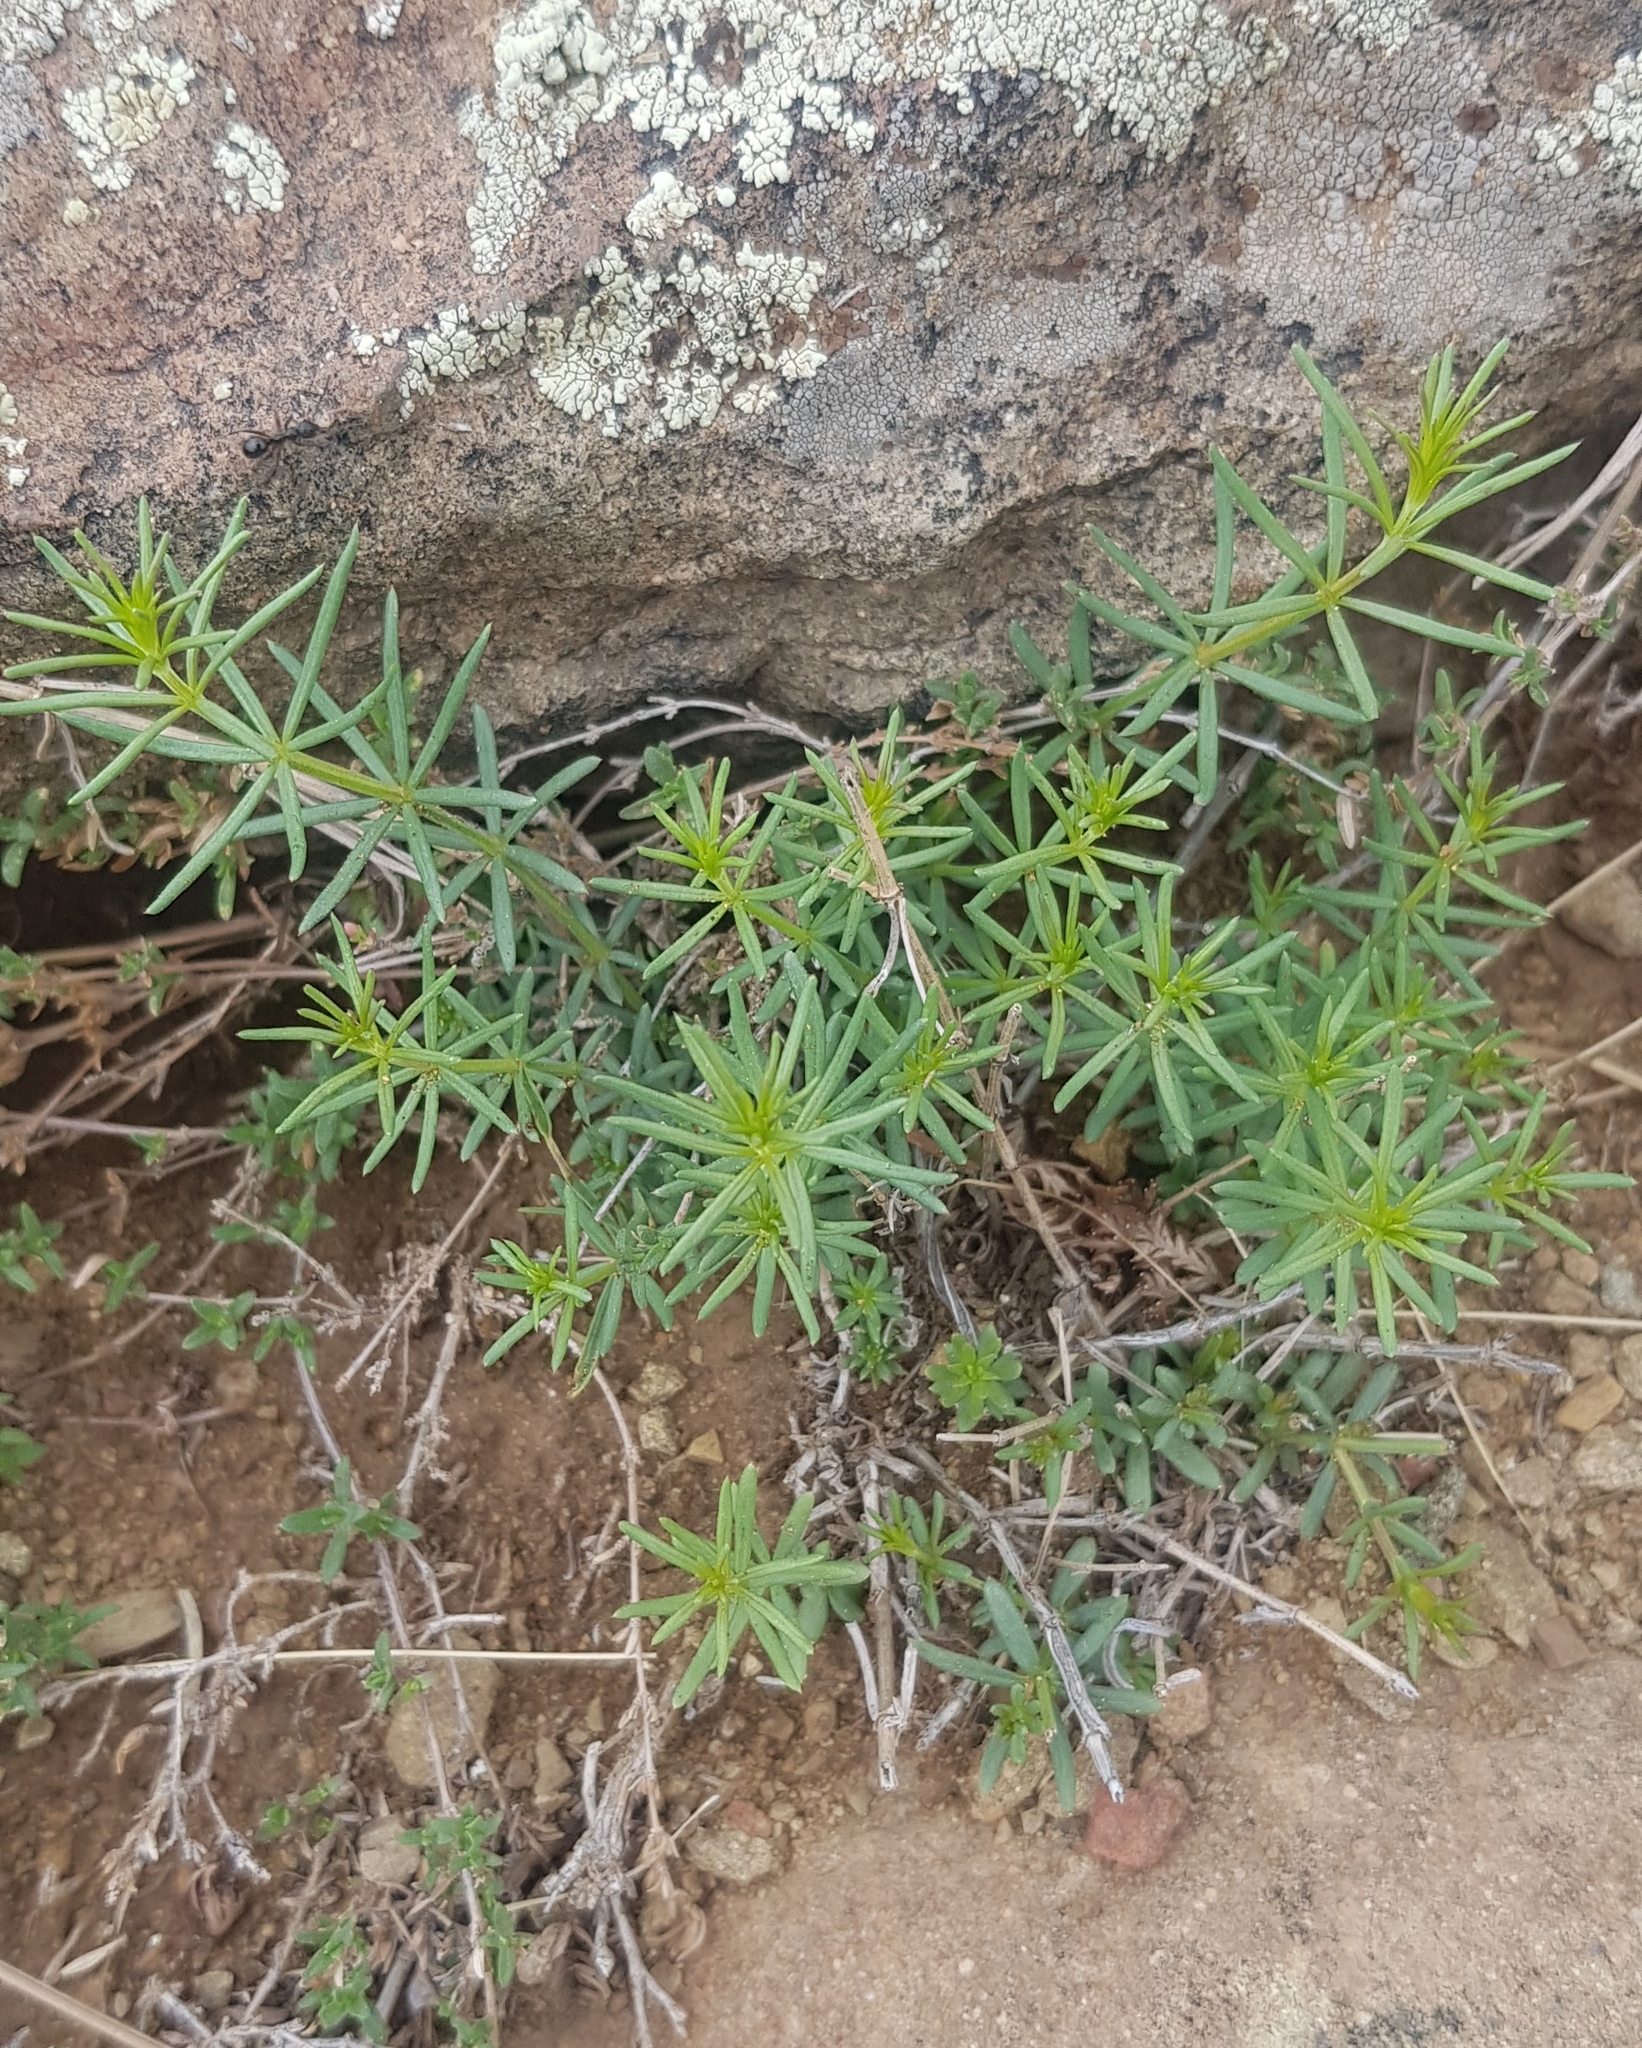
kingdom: Plantae
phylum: Tracheophyta
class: Magnoliopsida
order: Gentianales
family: Rubiaceae
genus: Galium
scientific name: Galium verum
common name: Lady's bedstraw
